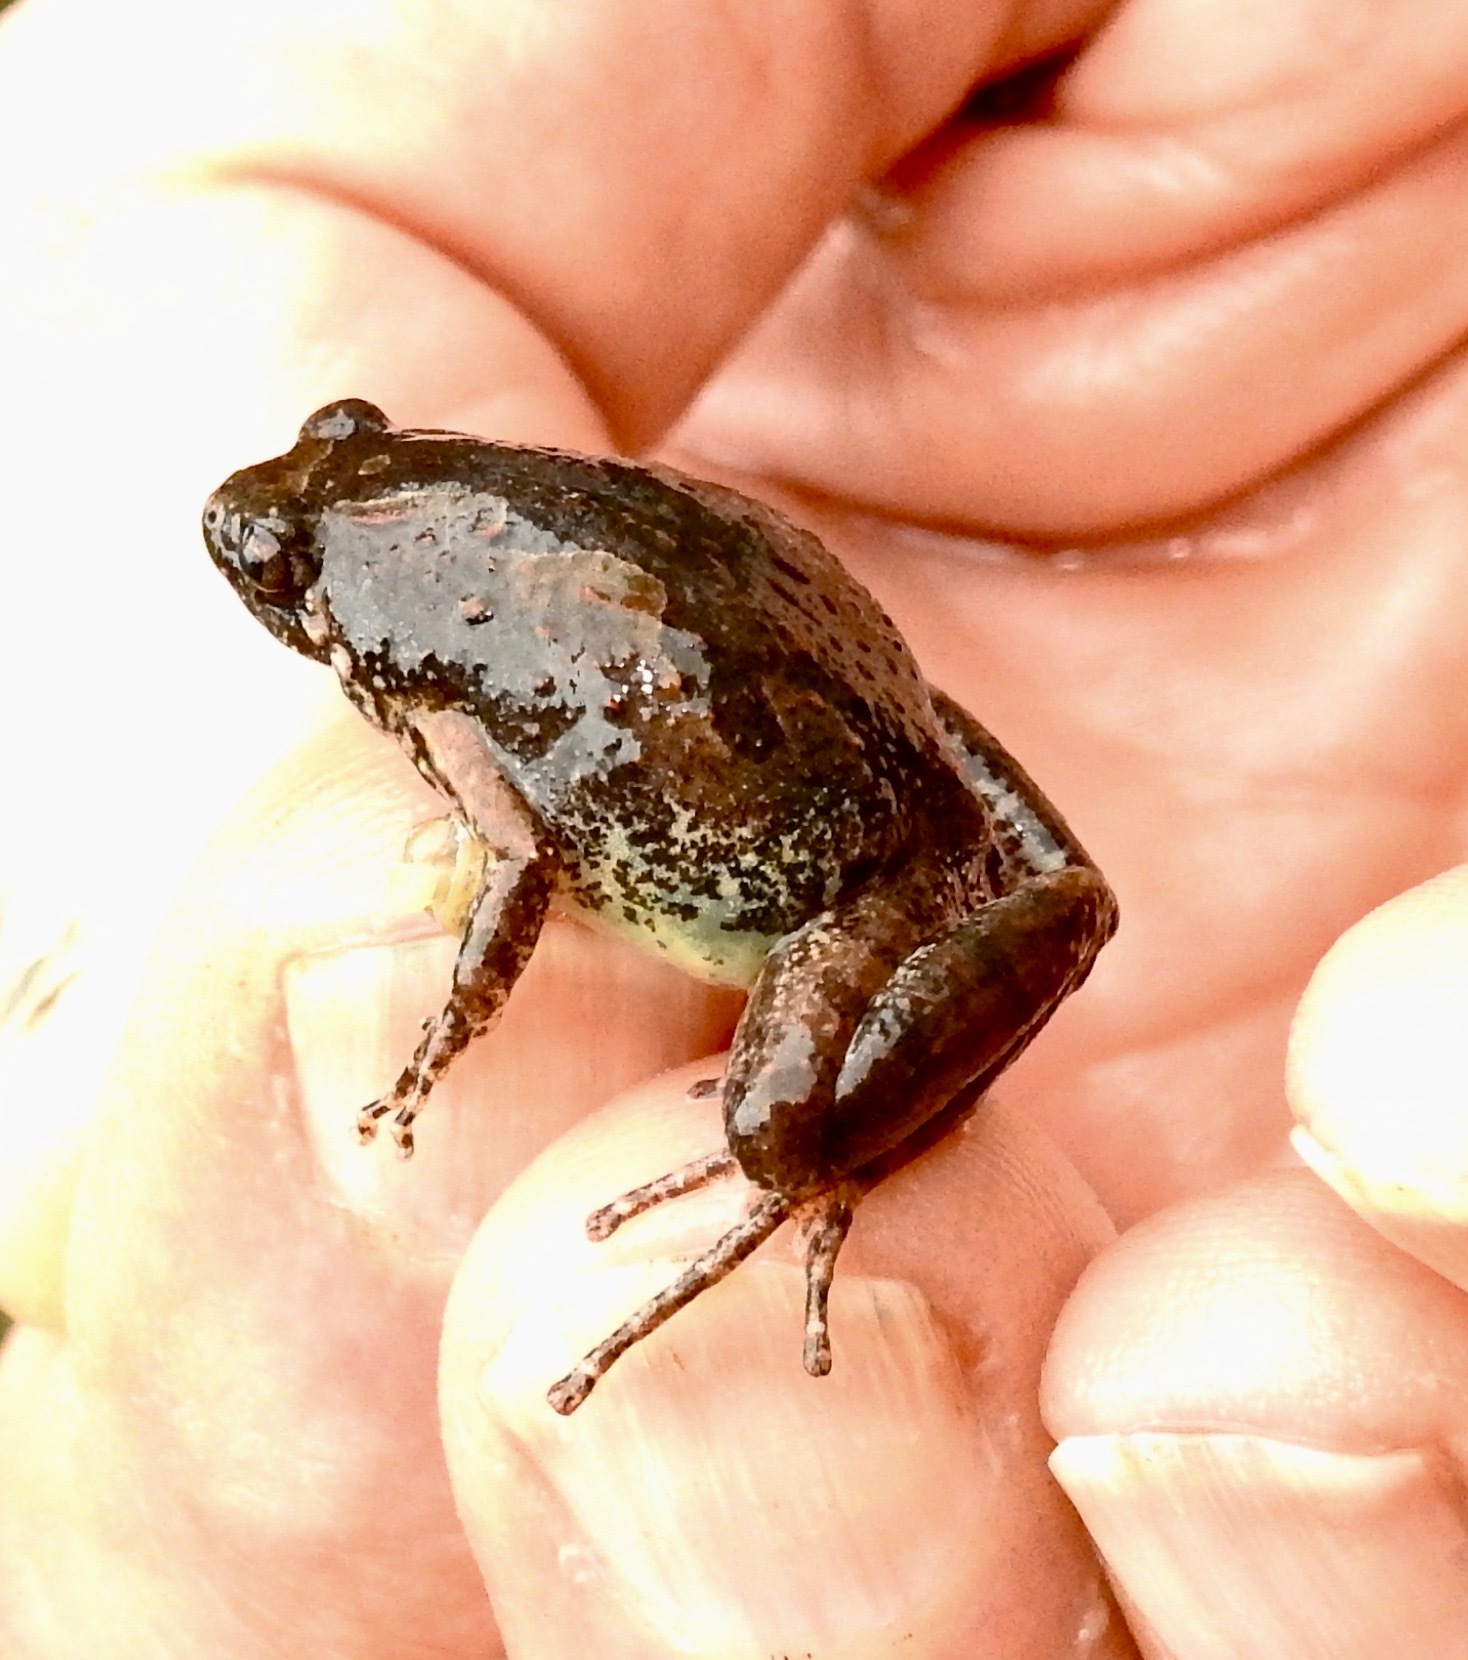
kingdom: Animalia
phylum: Chordata
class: Amphibia
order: Anura
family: Microhylidae
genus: Microhyla
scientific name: Microhyla butleri
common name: Butler’s rice frog,painted chorus frog,tubercled pygmy frog
